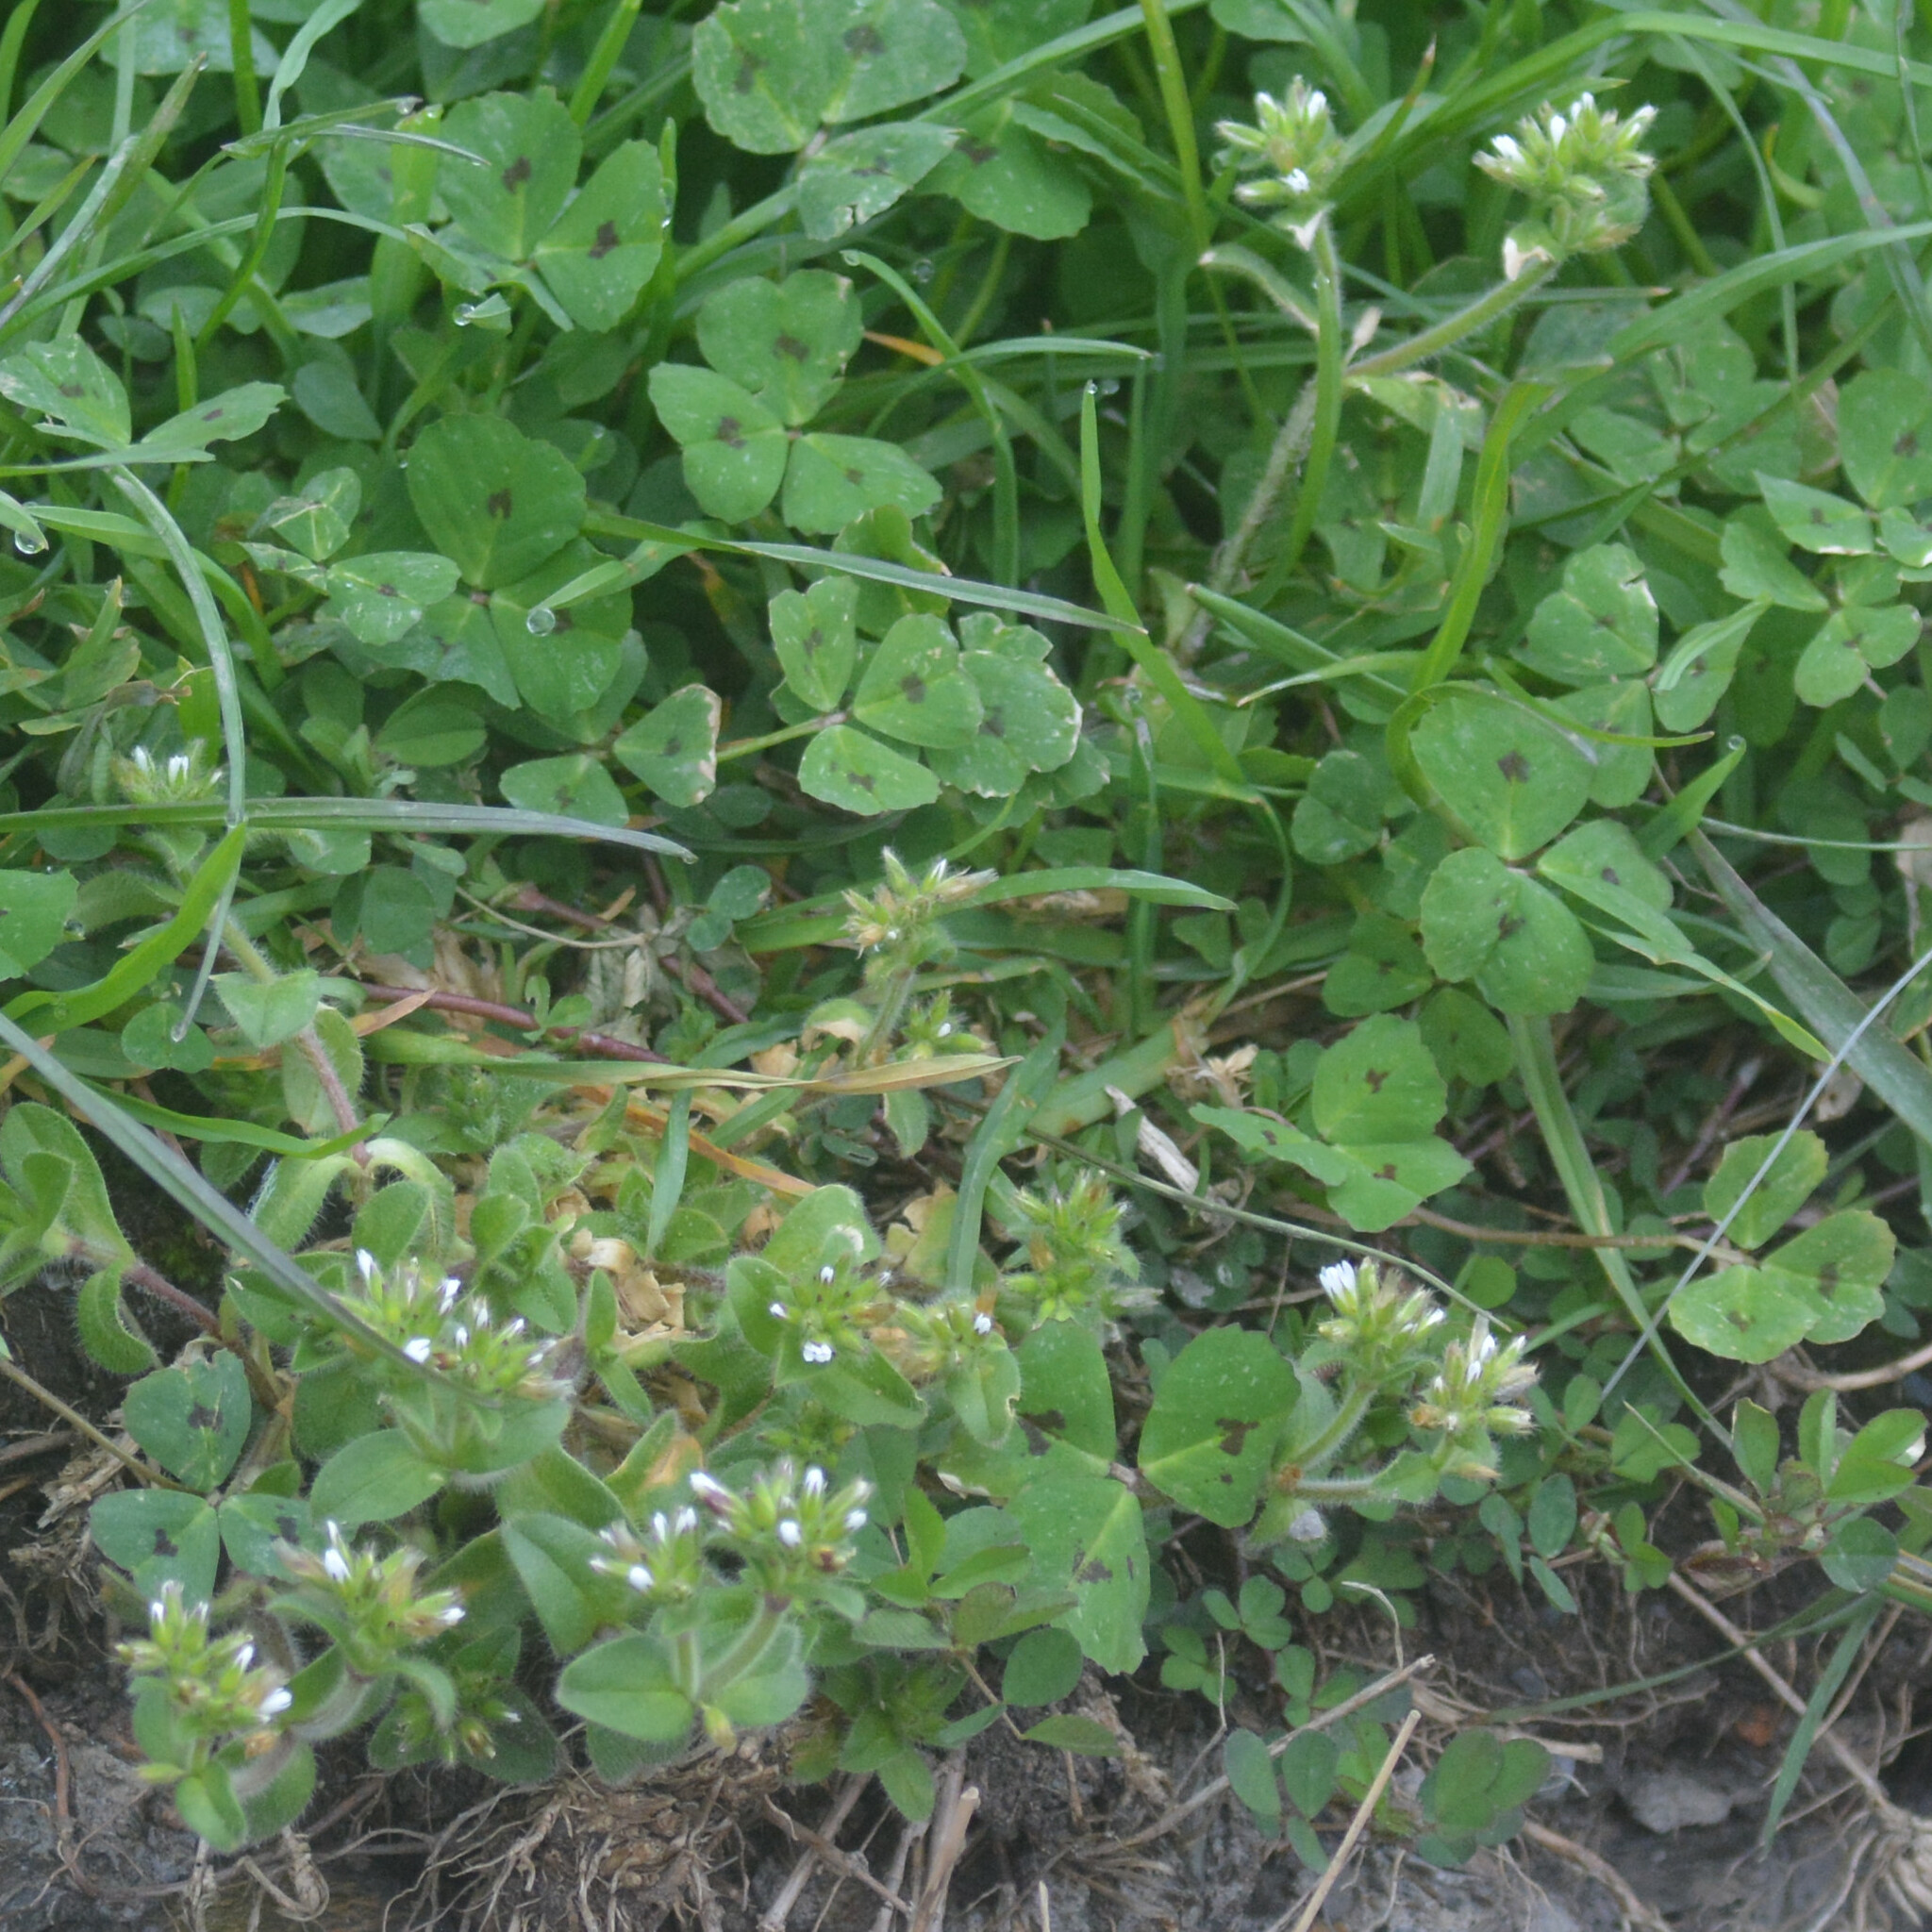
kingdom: Plantae
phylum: Tracheophyta
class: Magnoliopsida
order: Fabales
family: Fabaceae
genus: Medicago
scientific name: Medicago arabica
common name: Spotted medick
